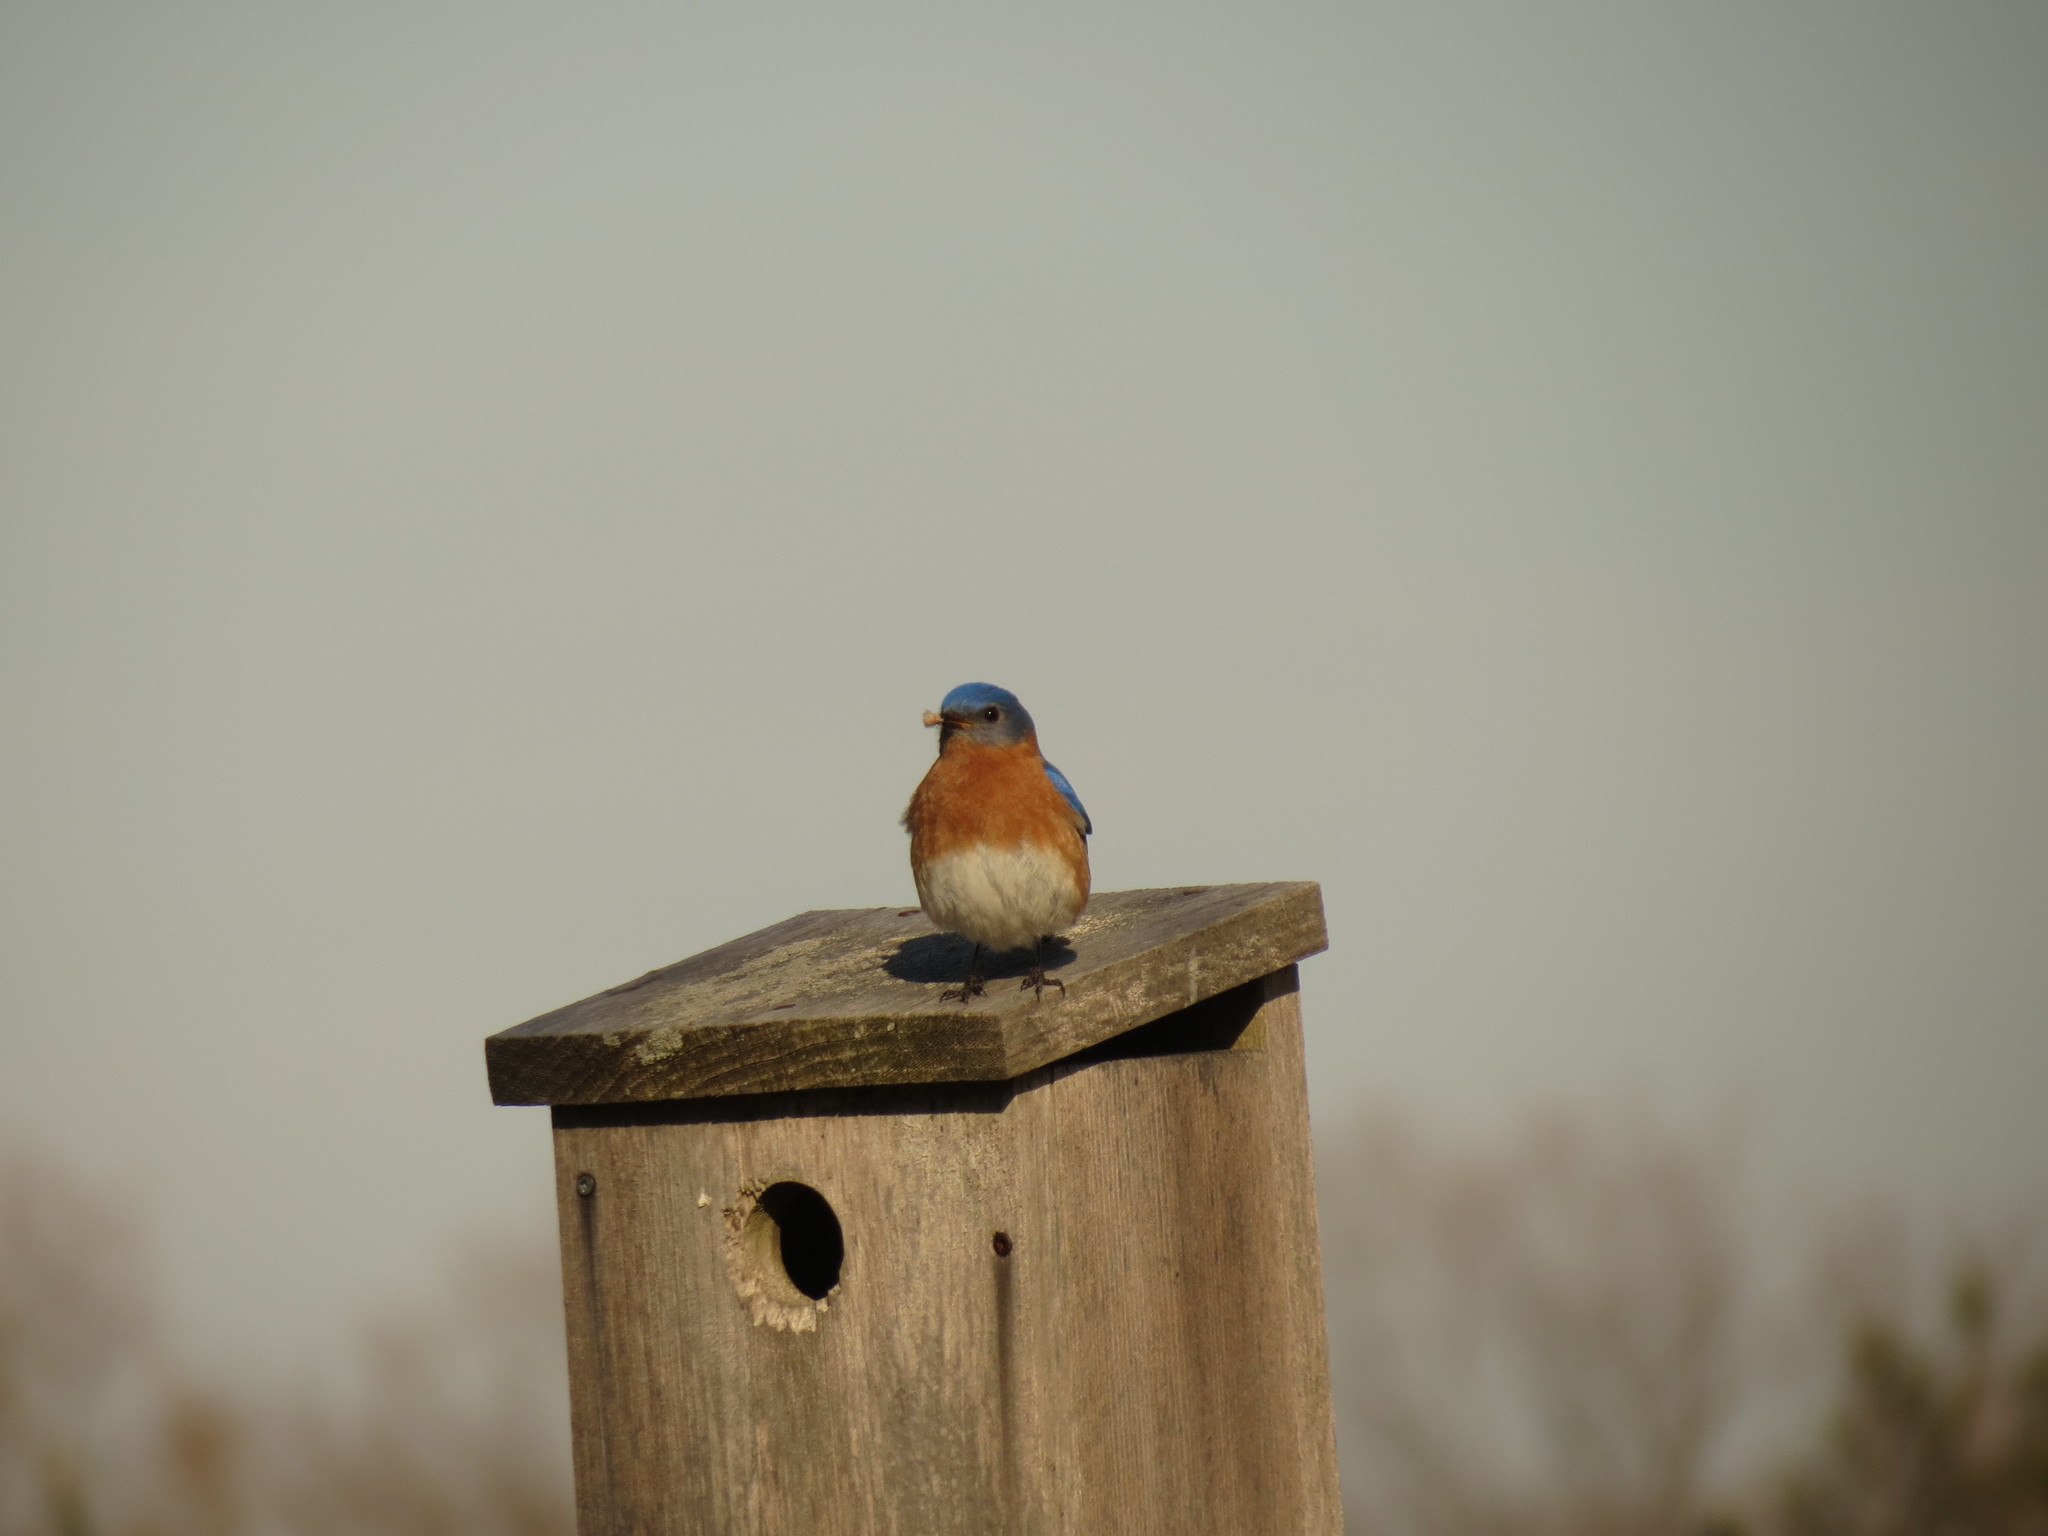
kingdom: Animalia
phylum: Chordata
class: Aves
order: Passeriformes
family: Turdidae
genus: Sialia
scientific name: Sialia sialis
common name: Eastern bluebird
